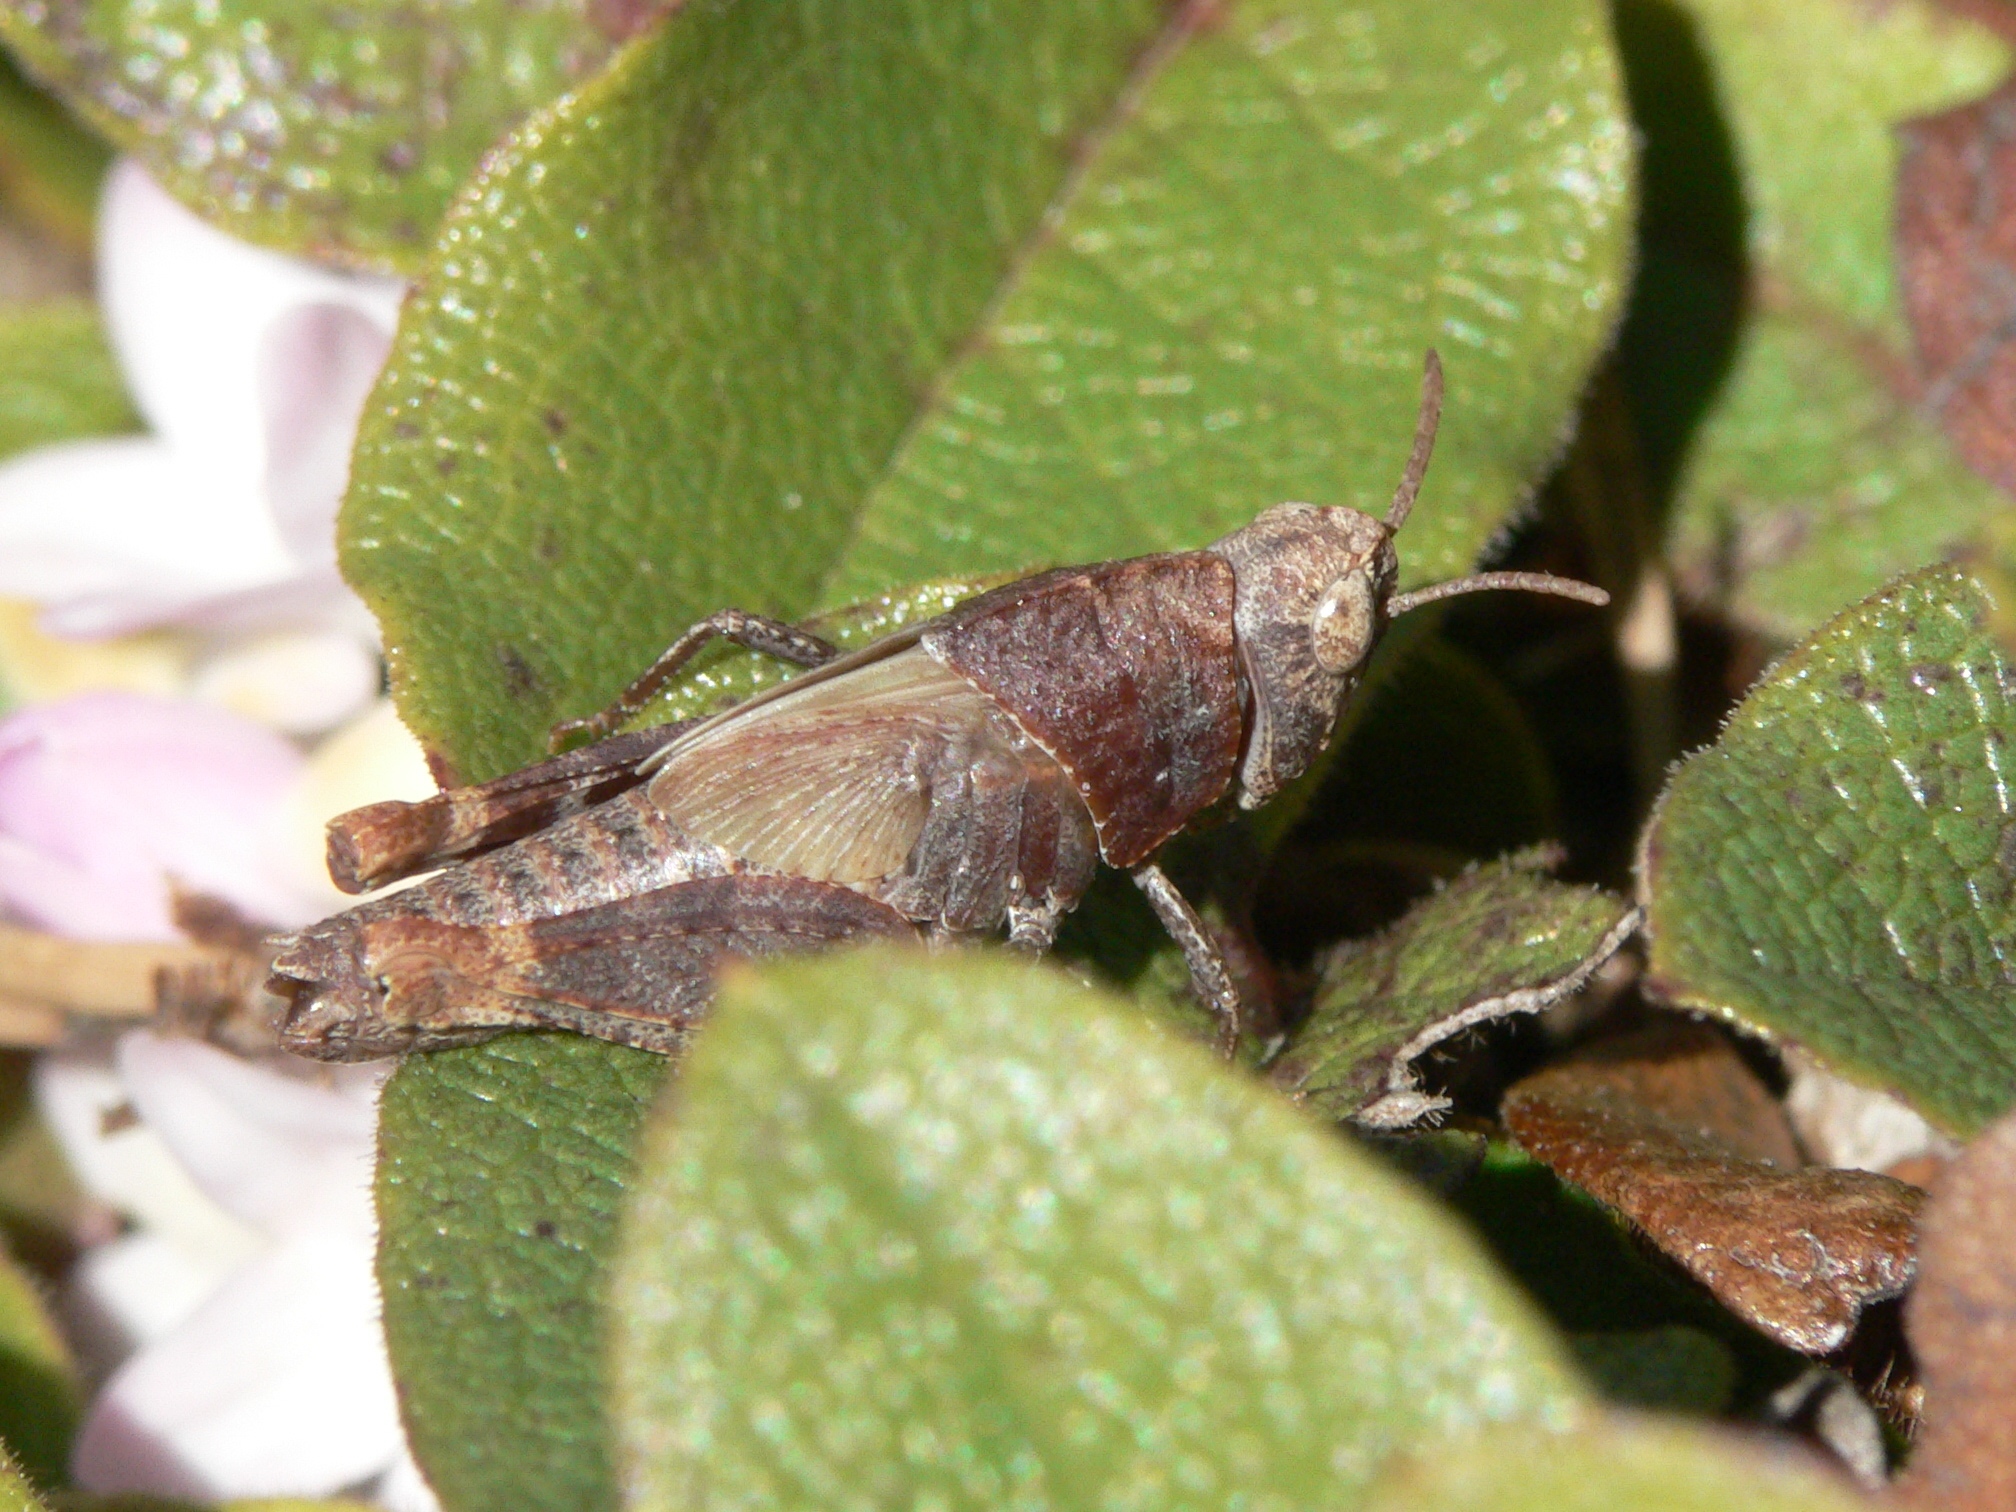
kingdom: Animalia
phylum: Arthropoda
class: Insecta
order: Orthoptera
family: Acrididae
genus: Arphia
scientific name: Arphia sulphurea
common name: Spring yellow-winged locust
